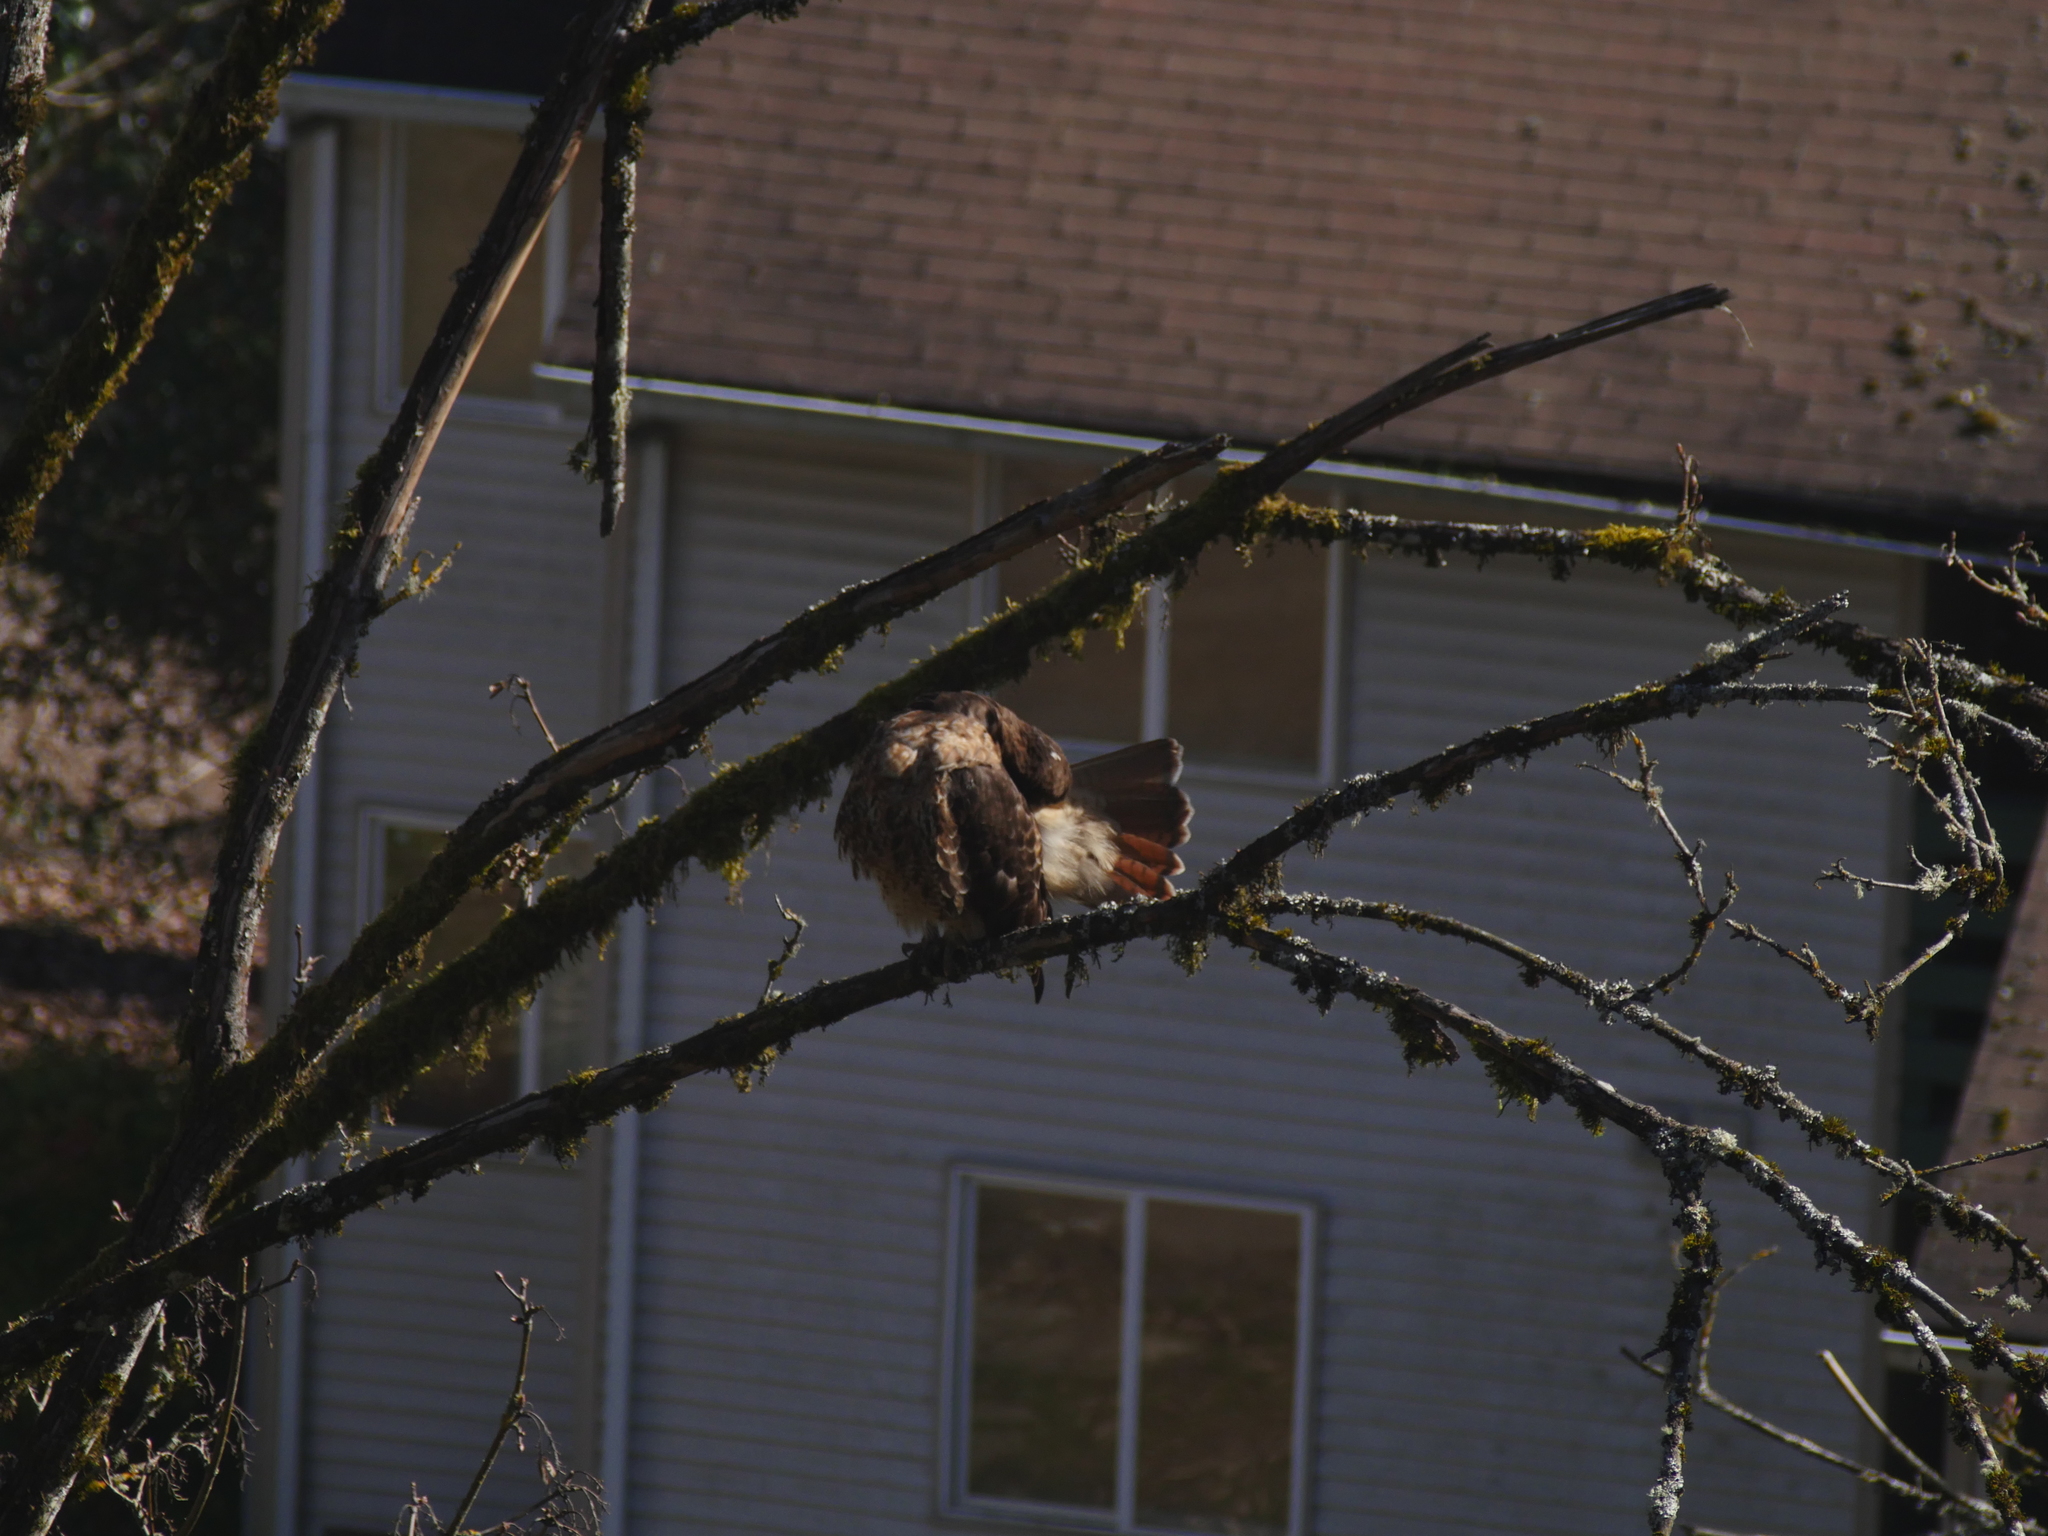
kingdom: Animalia
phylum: Chordata
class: Aves
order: Accipitriformes
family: Accipitridae
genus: Buteo
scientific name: Buteo jamaicensis
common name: Red-tailed hawk
